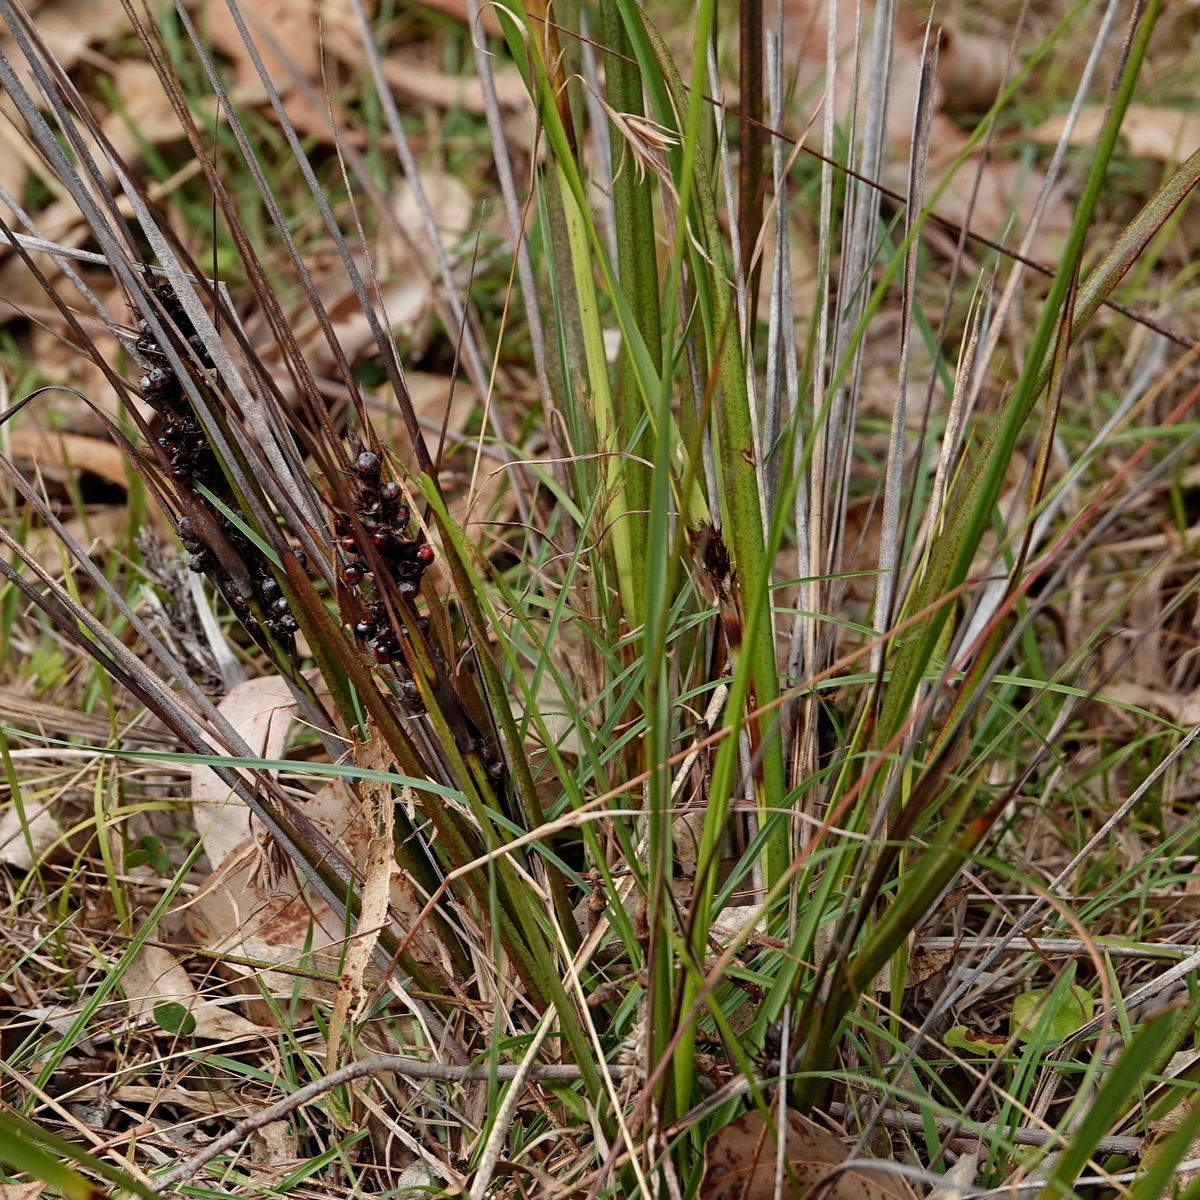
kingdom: Plantae
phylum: Tracheophyta
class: Liliopsida
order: Poales
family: Cyperaceae
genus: Gahnia
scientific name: Gahnia aspera
